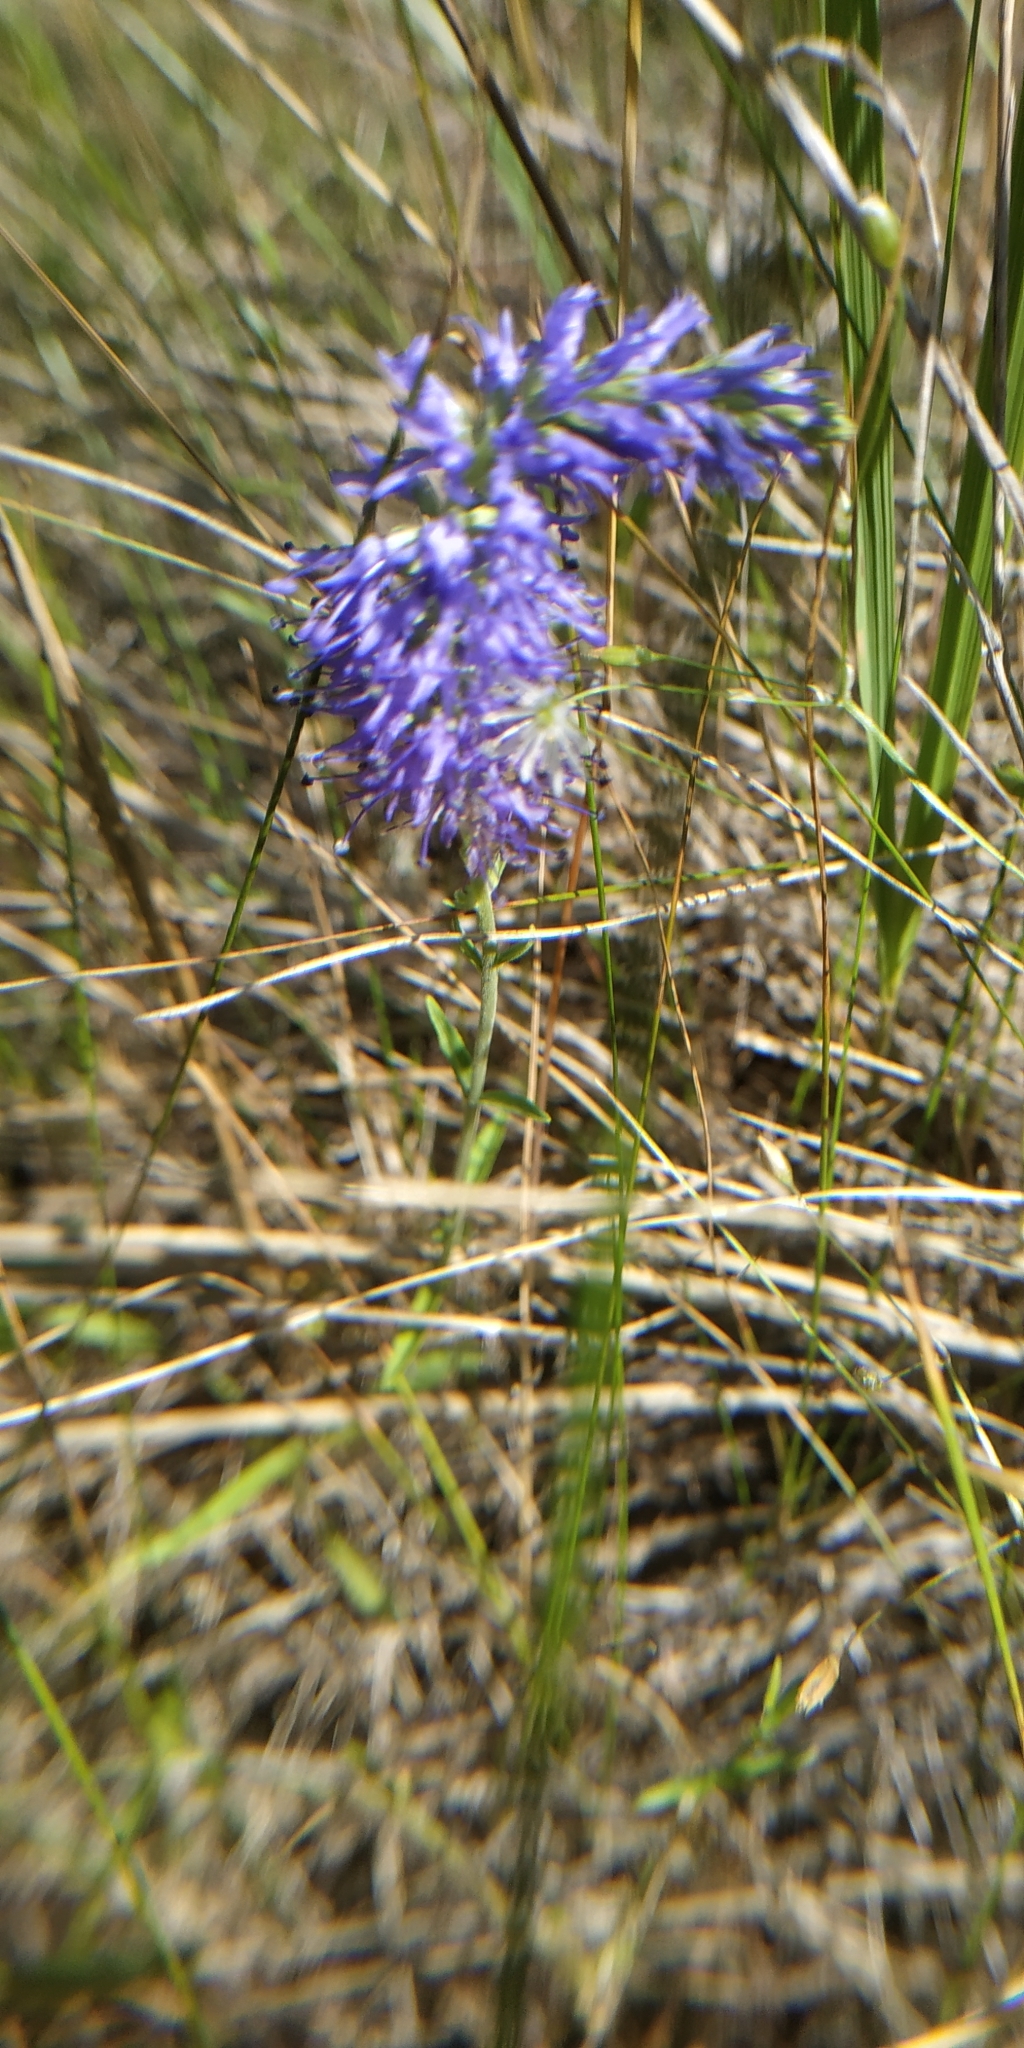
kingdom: Plantae
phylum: Tracheophyta
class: Magnoliopsida
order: Lamiales
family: Plantaginaceae
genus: Veronica
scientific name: Veronica spicata
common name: Spiked speedwell
